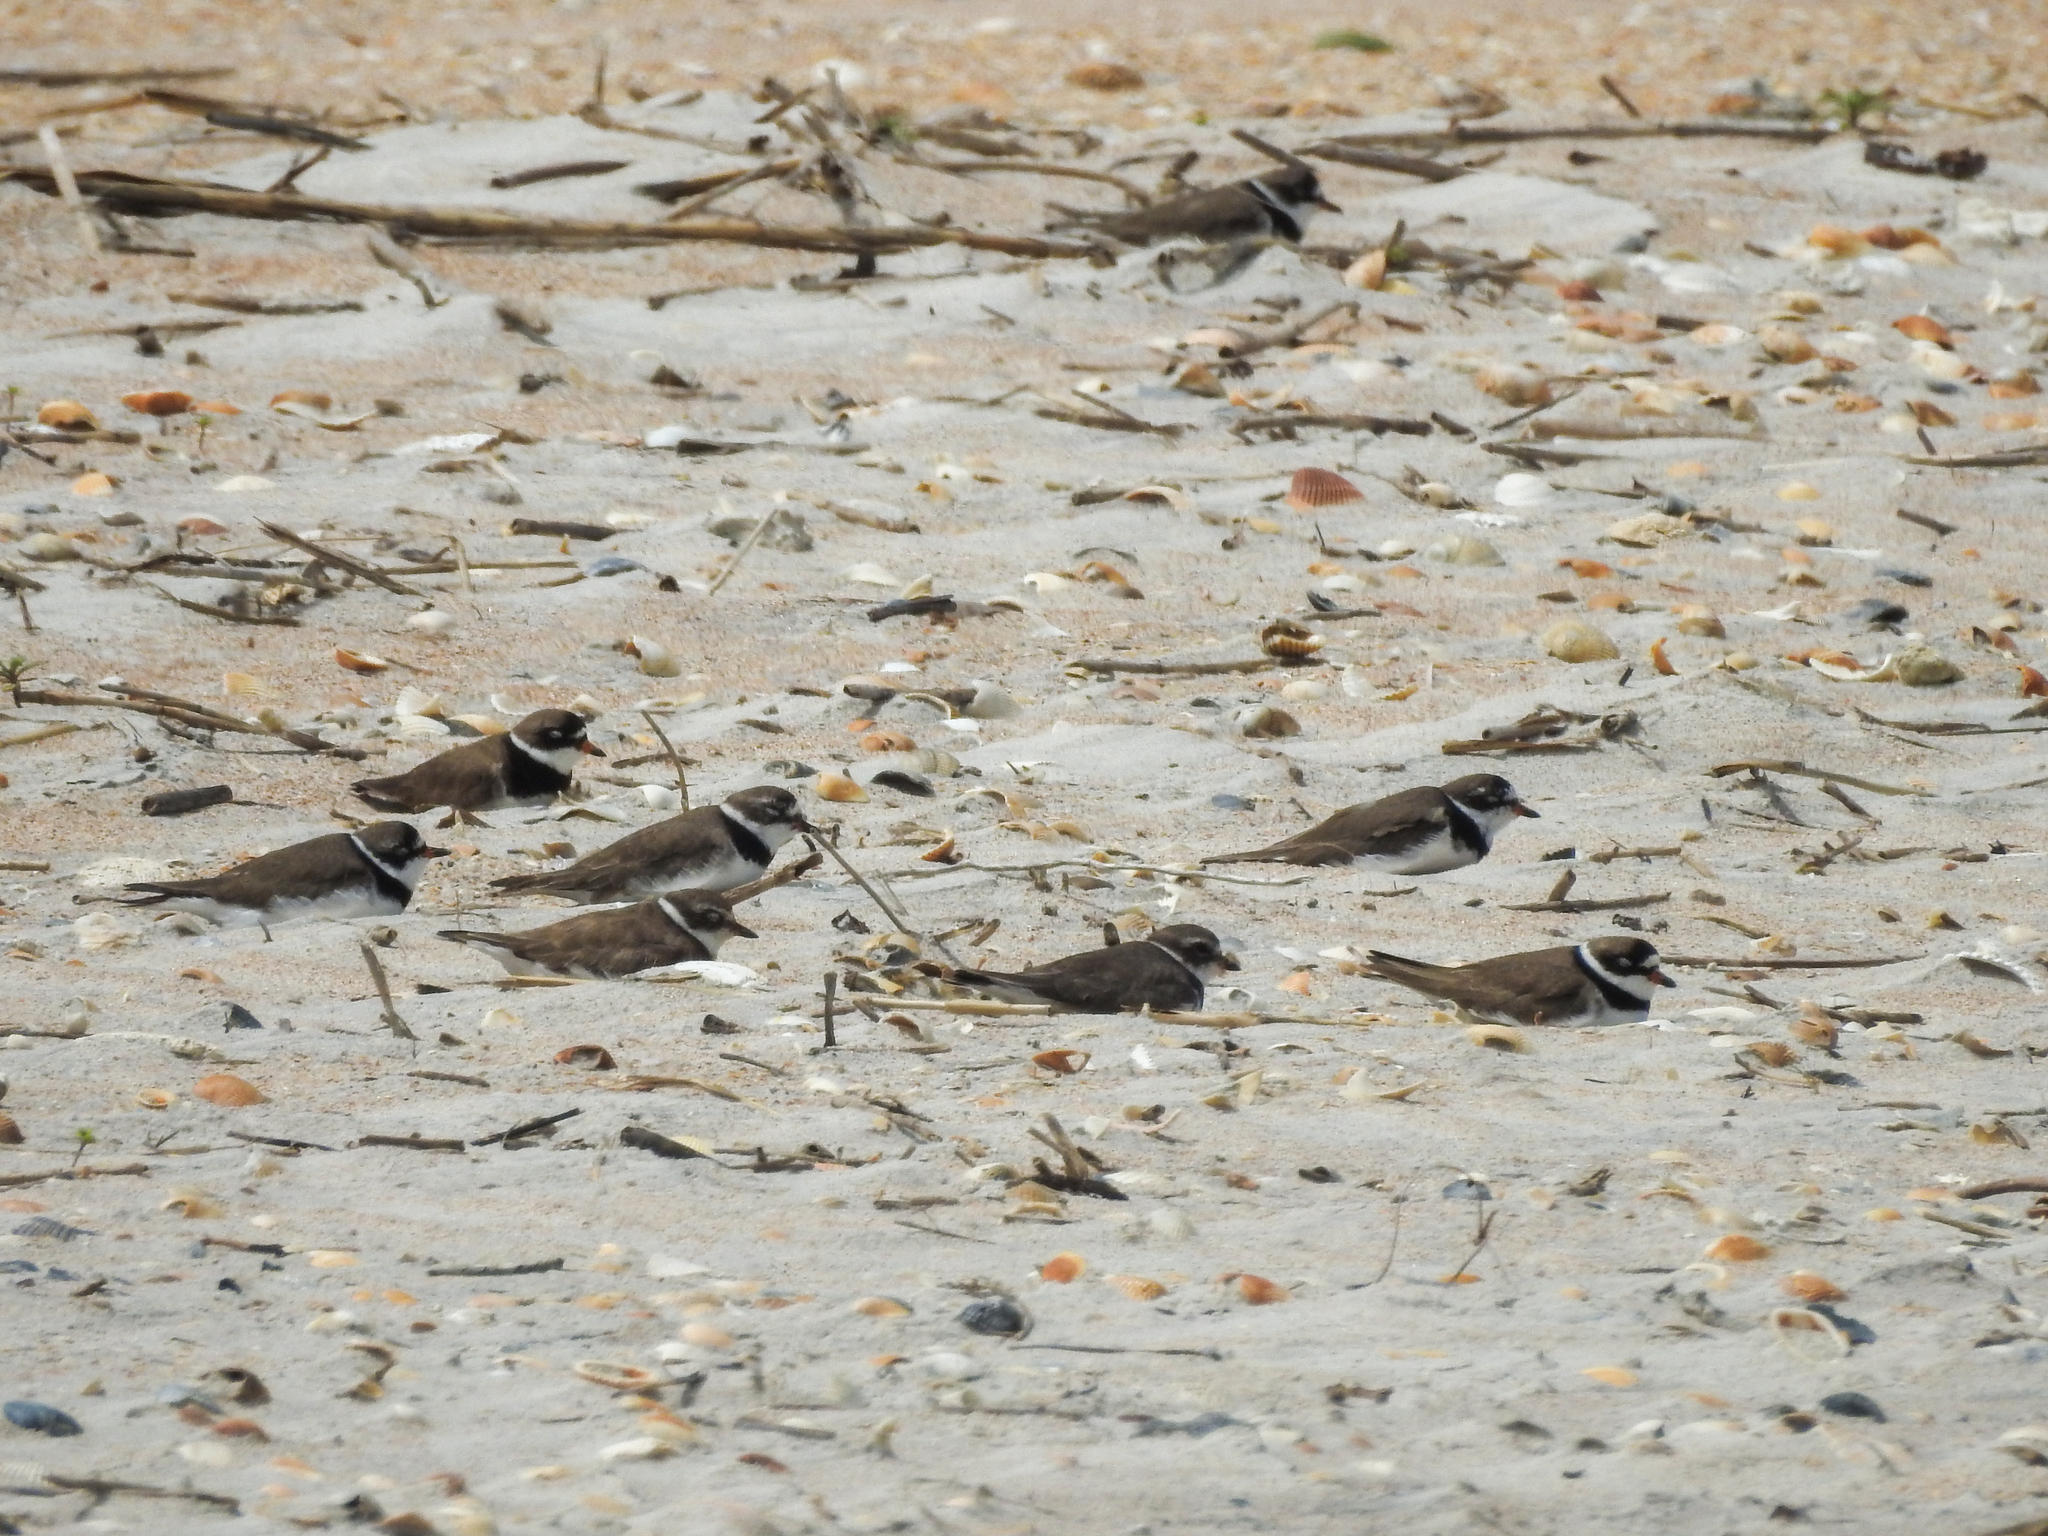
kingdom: Animalia
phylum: Chordata
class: Aves
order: Charadriiformes
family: Charadriidae
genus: Charadrius
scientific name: Charadrius semipalmatus
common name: Semipalmated plover
